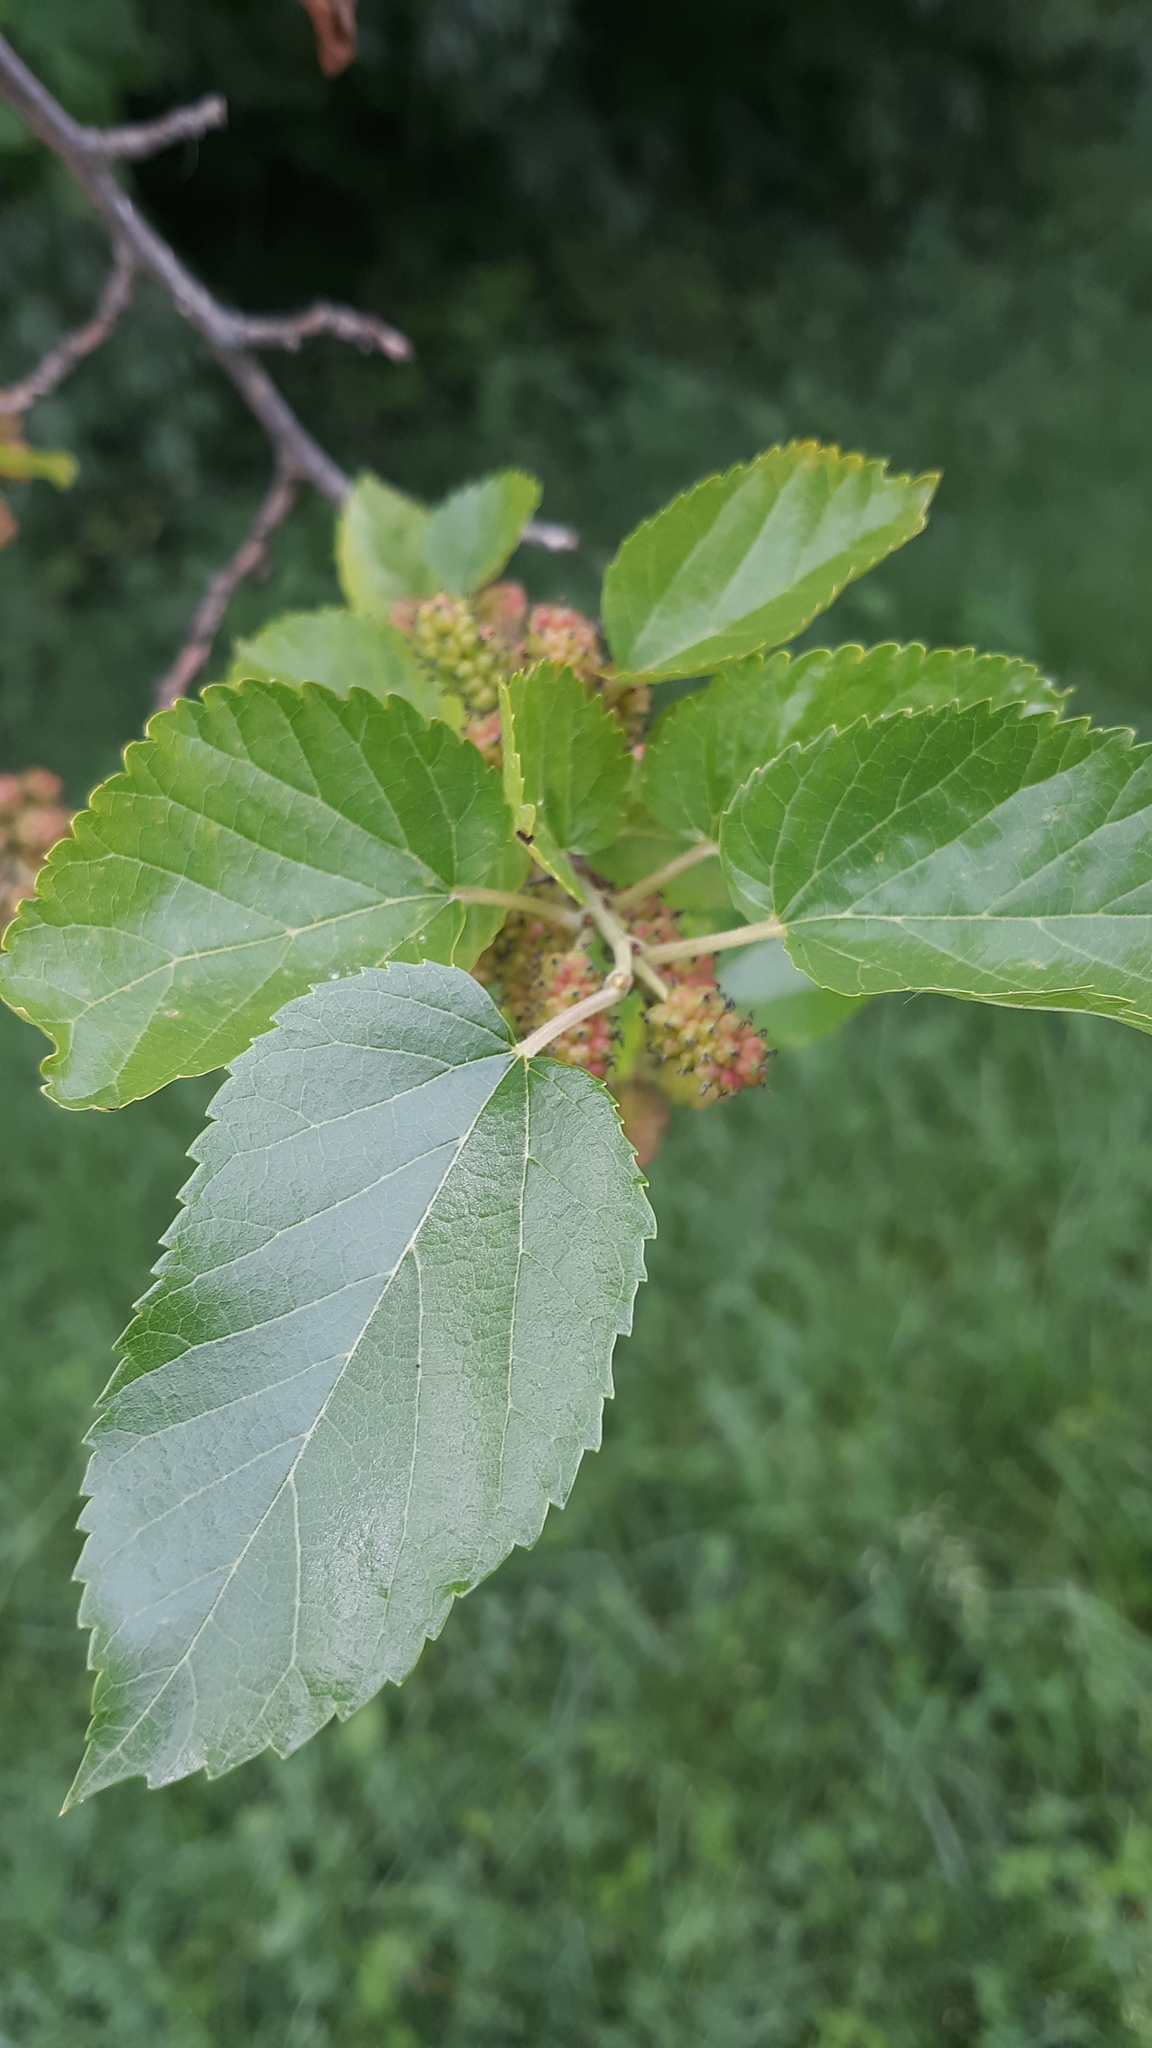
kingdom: Plantae
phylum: Tracheophyta
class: Magnoliopsida
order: Rosales
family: Moraceae
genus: Morus
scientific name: Morus alba
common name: White mulberry
